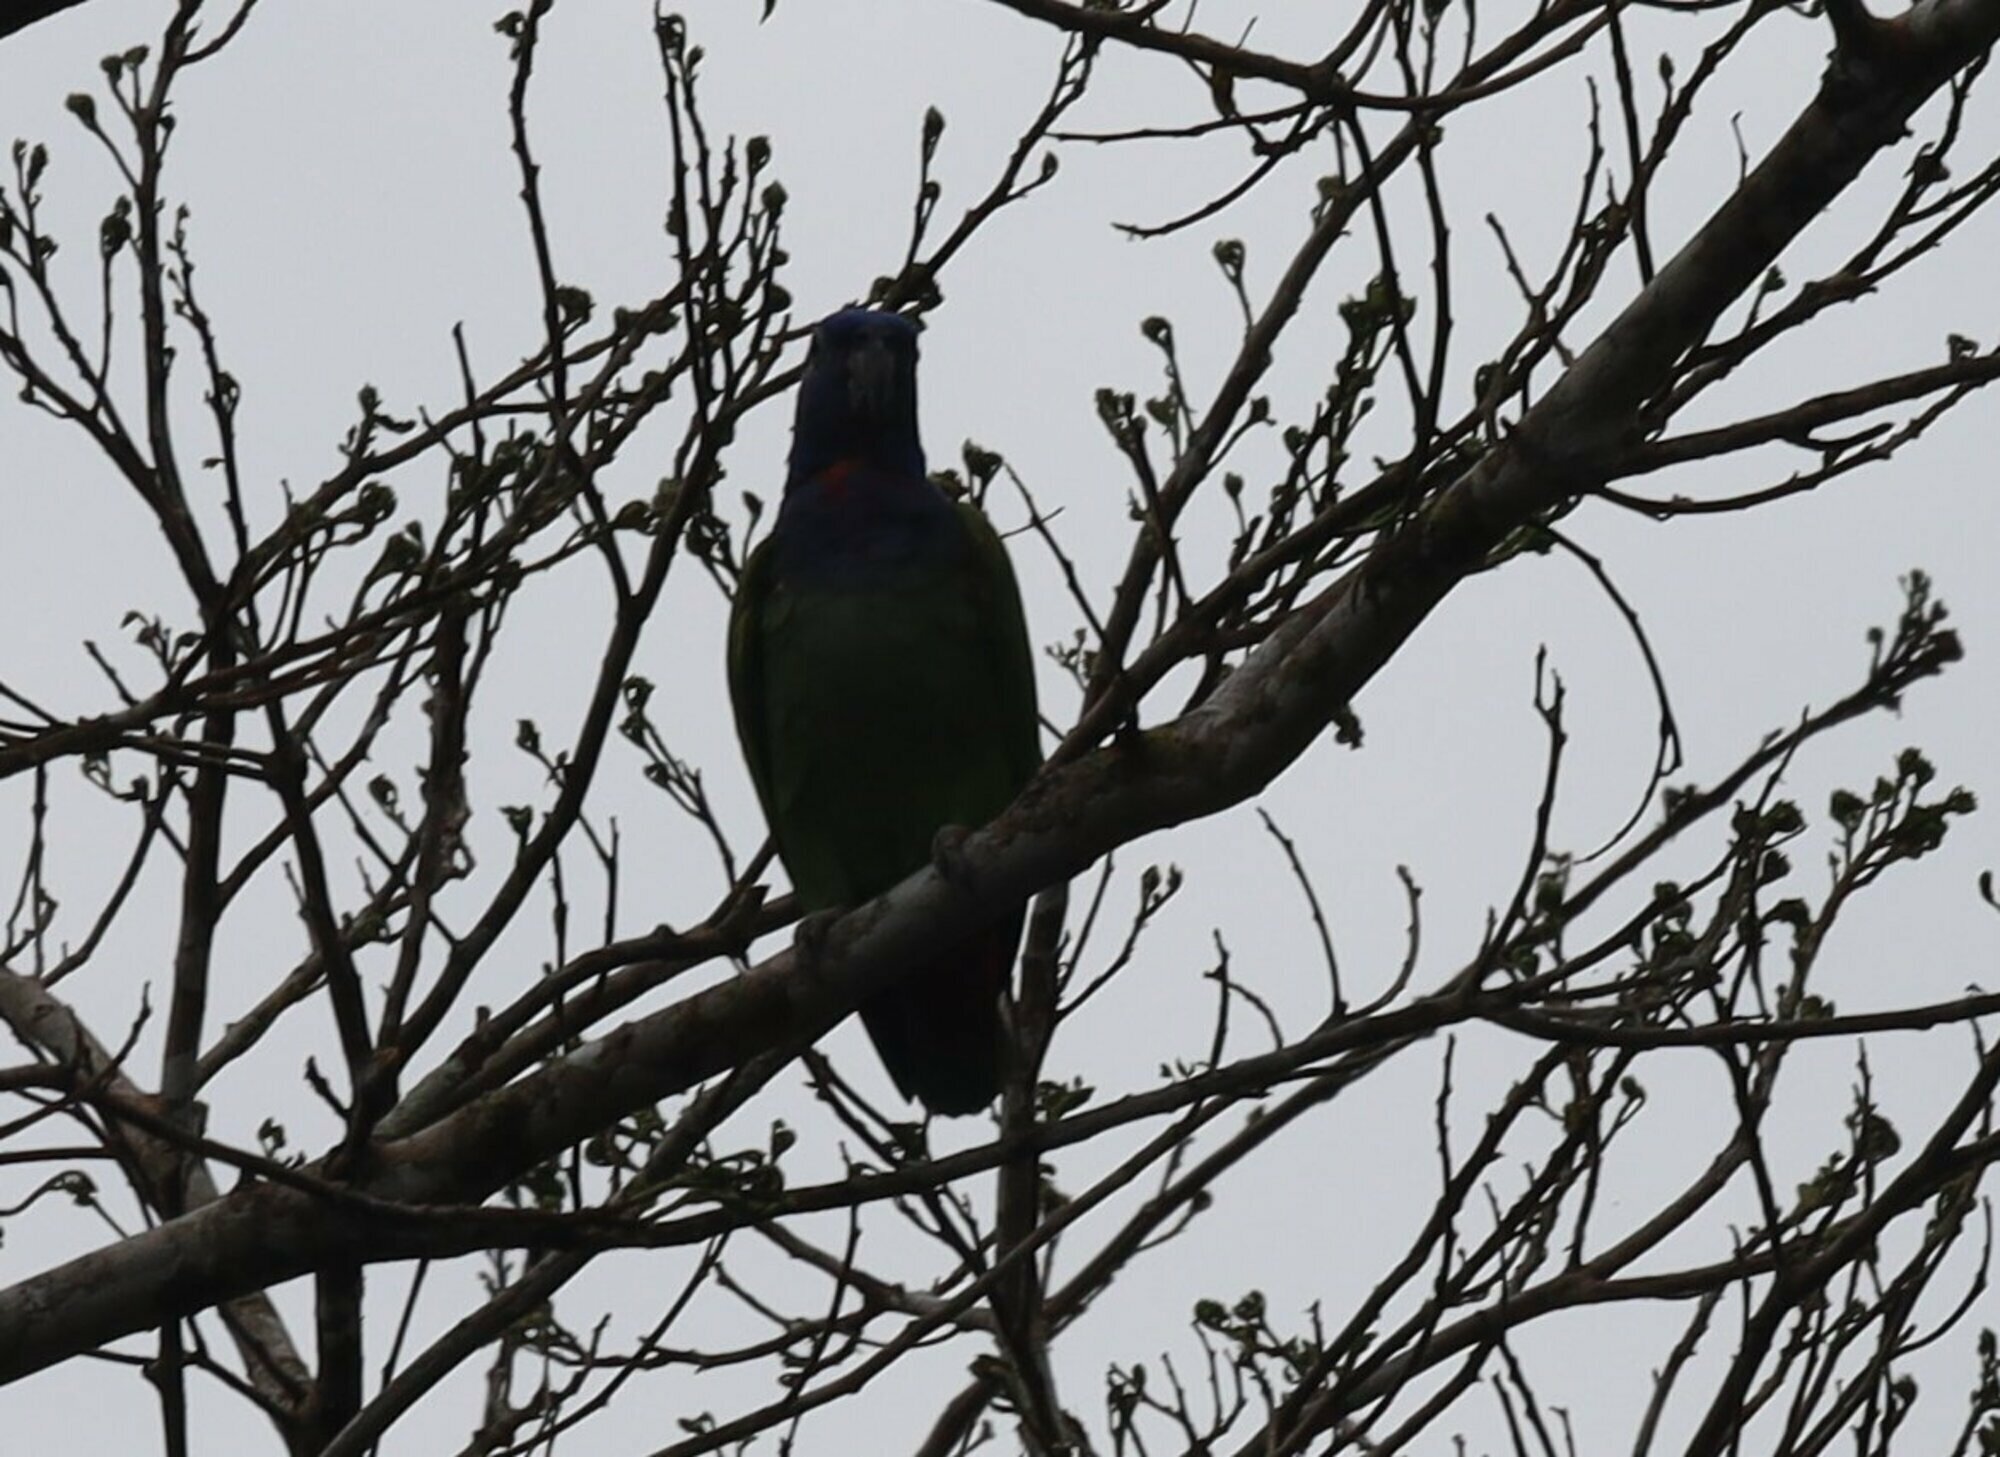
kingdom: Animalia
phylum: Chordata
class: Aves
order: Psittaciformes
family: Psittacidae
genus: Pionus
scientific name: Pionus menstruus
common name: Blue-headed parrot
